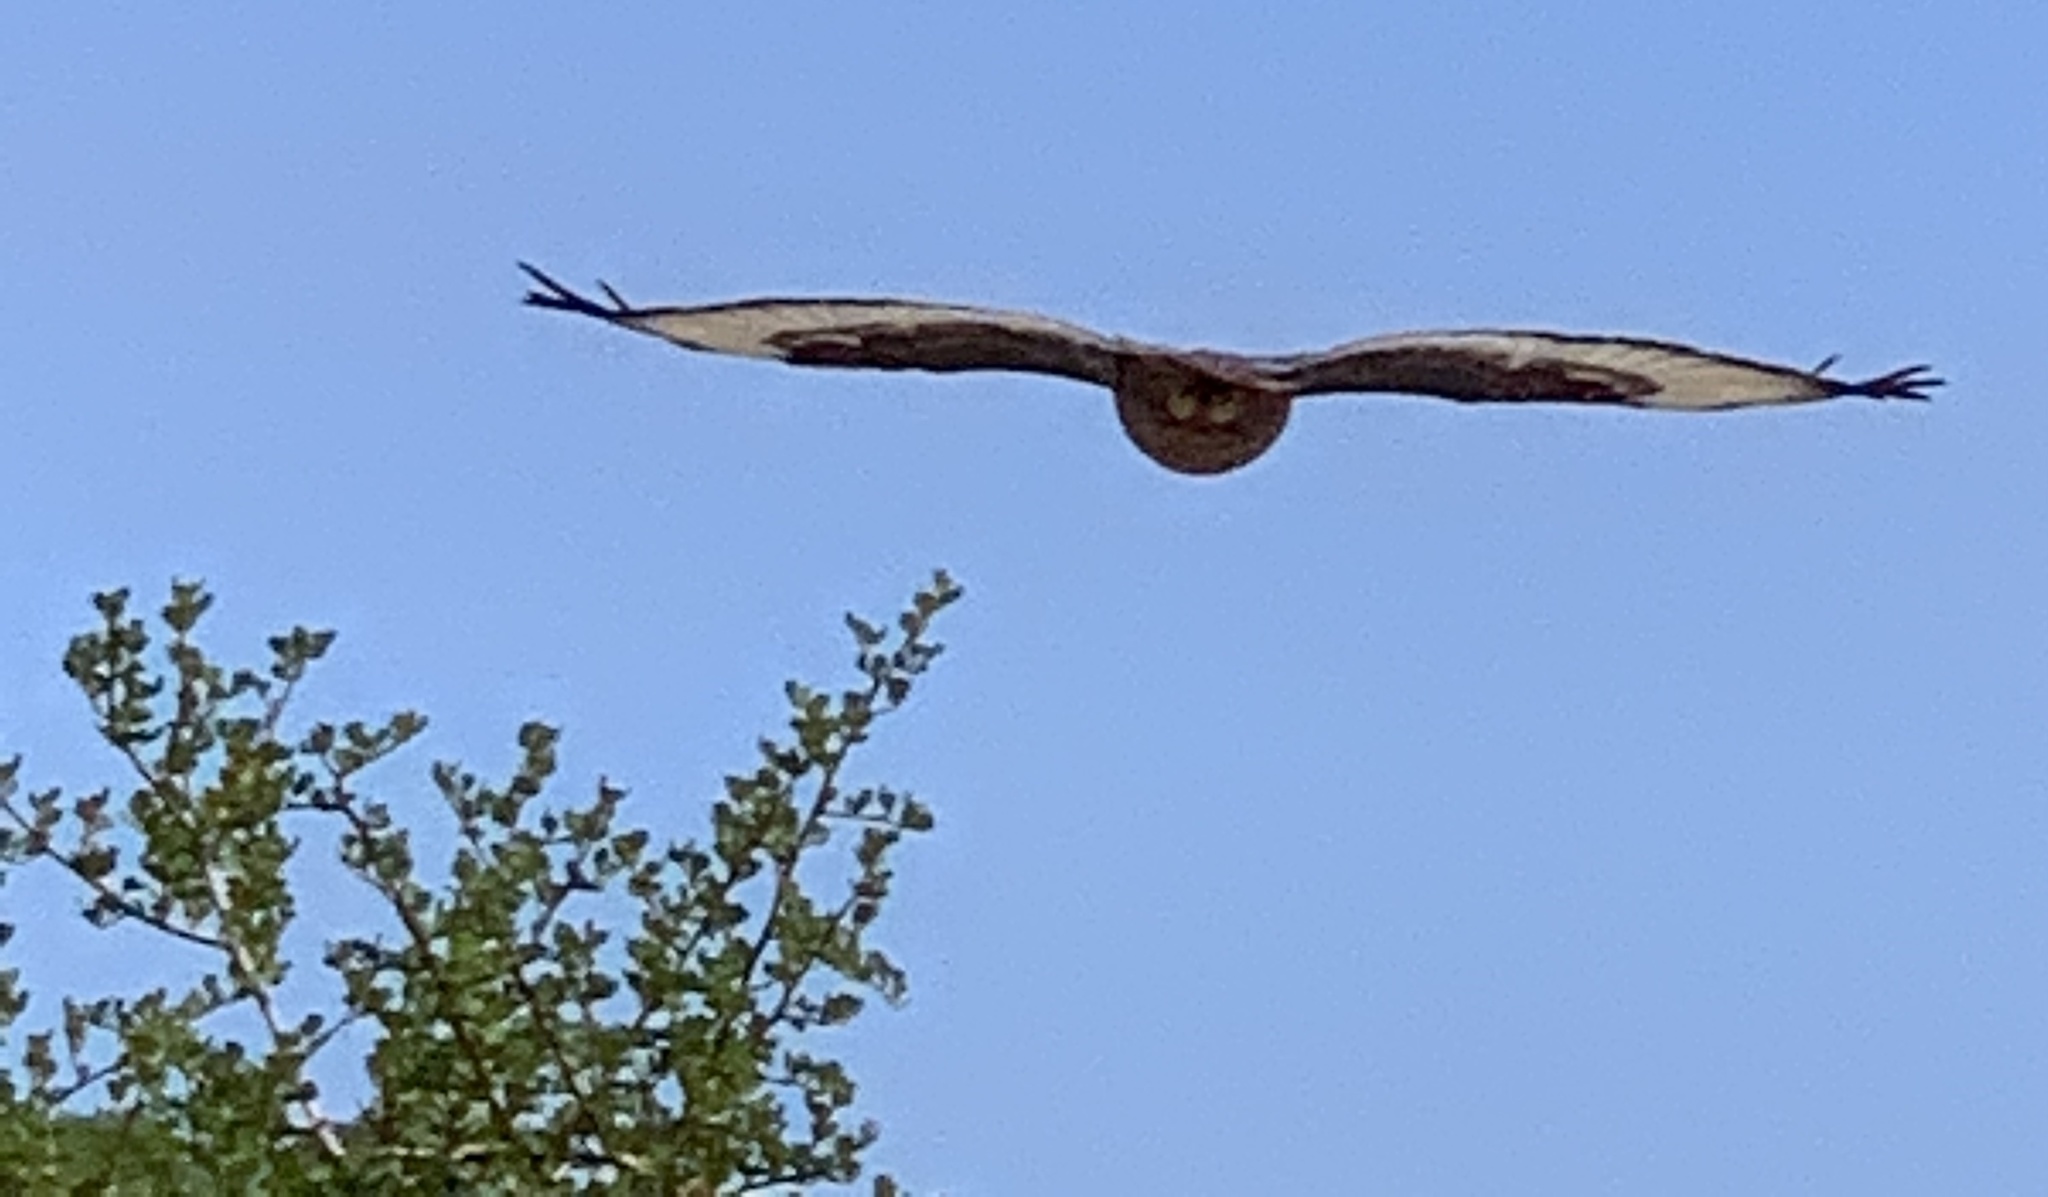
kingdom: Animalia
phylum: Chordata
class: Aves
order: Accipitriformes
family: Accipitridae
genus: Buteo
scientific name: Buteo rufofuscus
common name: Jackal buzzard
